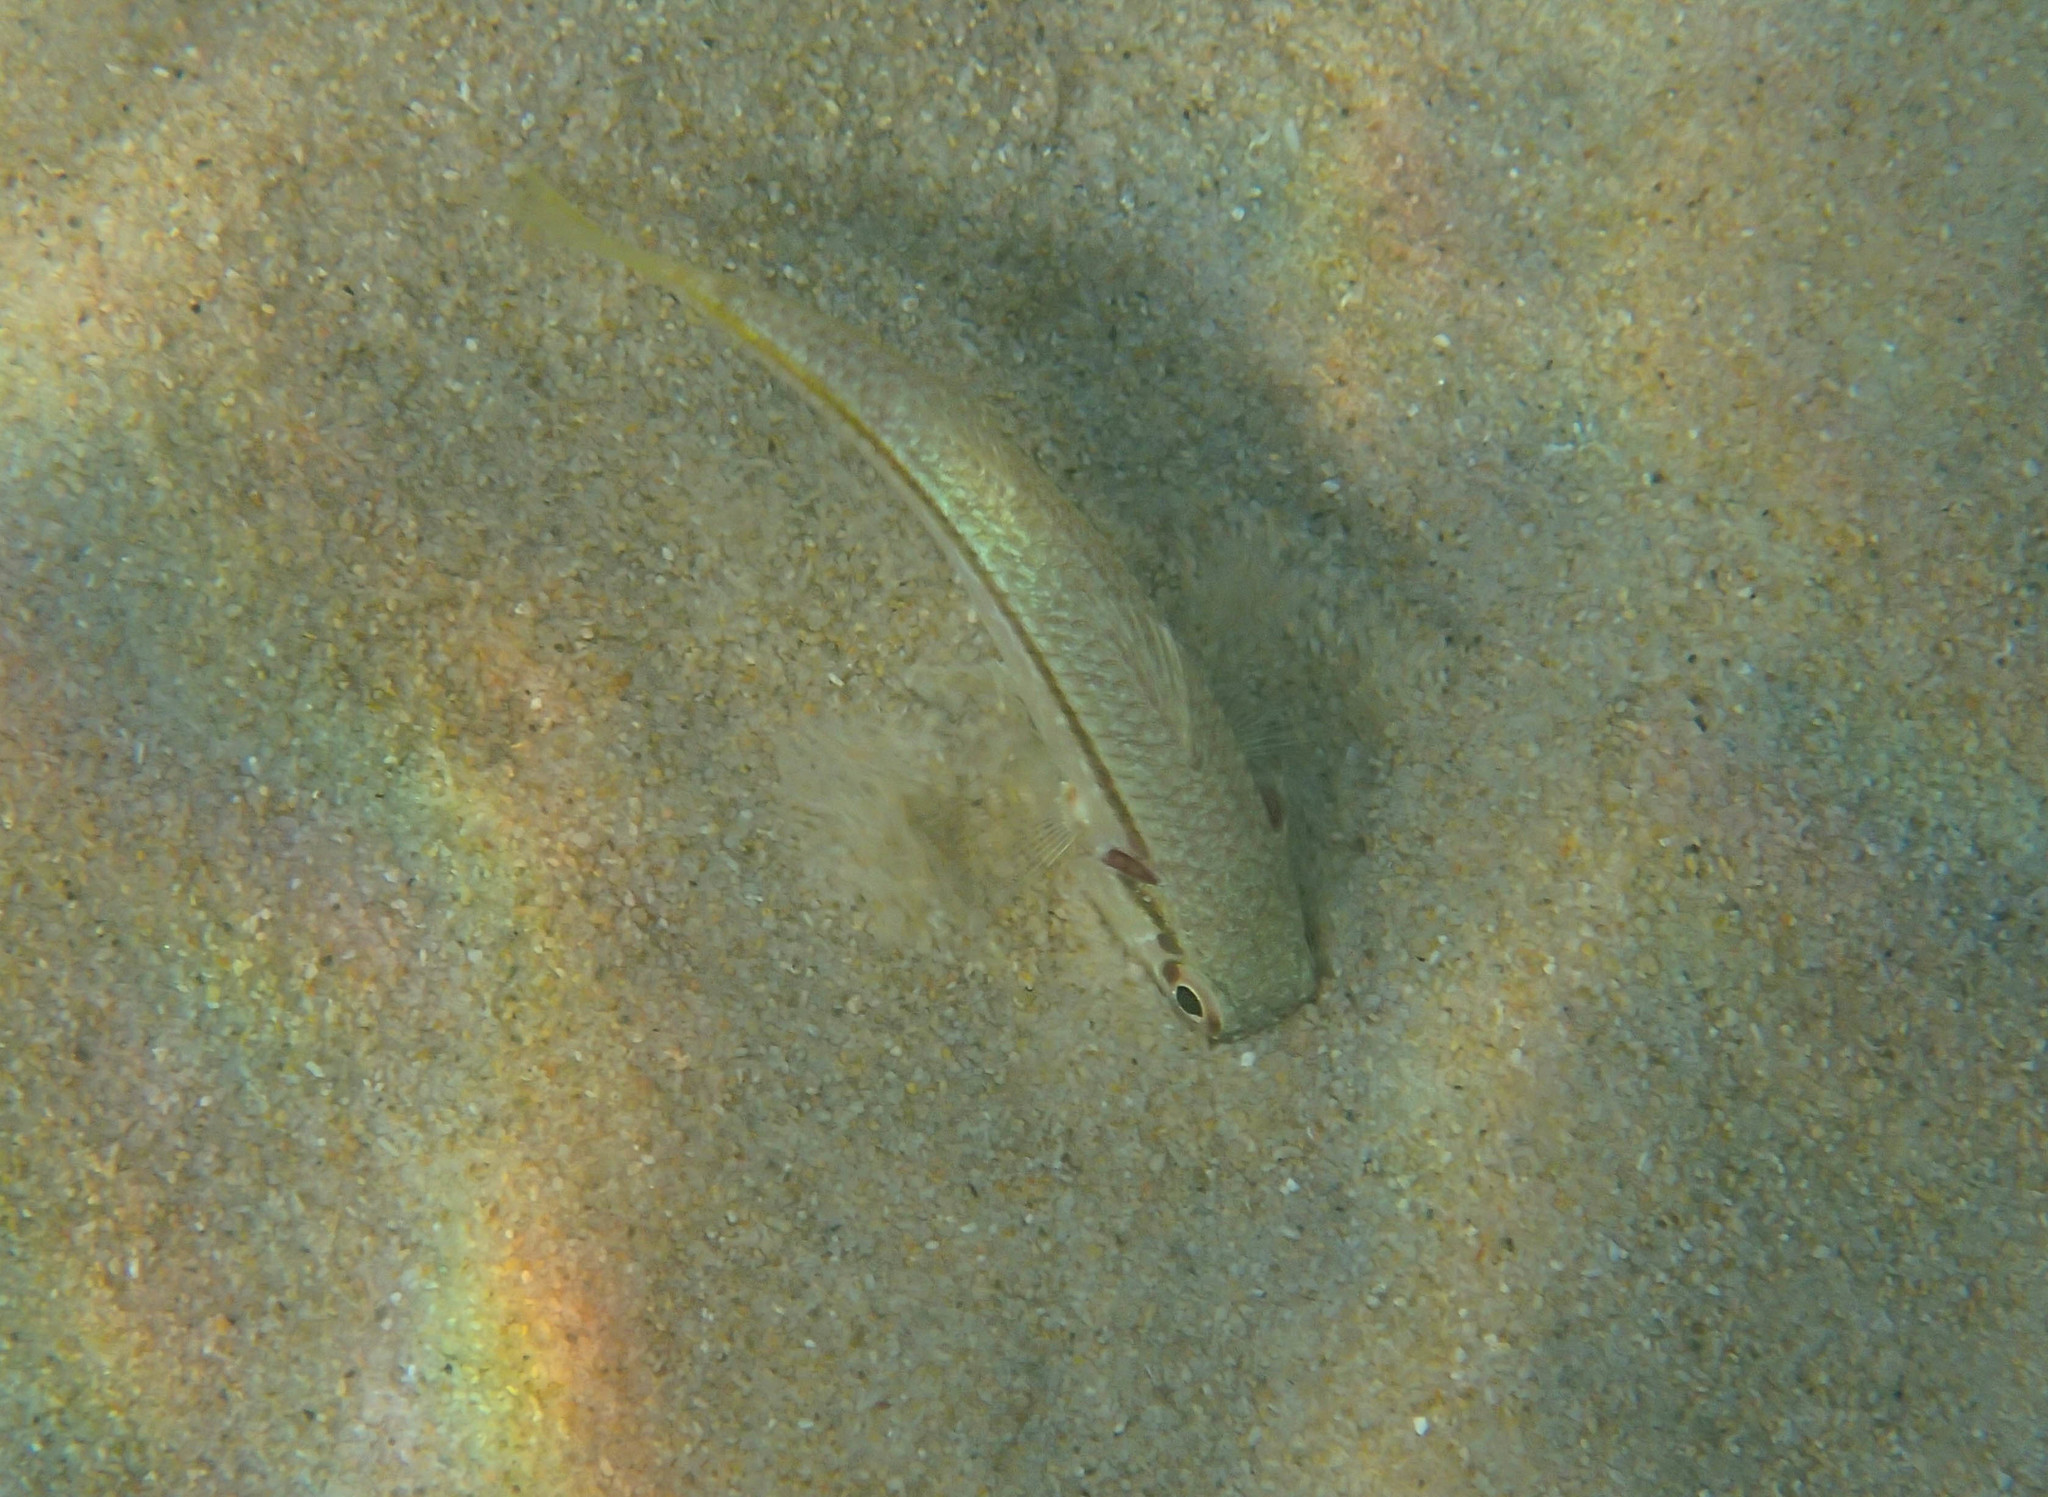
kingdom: Animalia
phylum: Chordata
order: Perciformes
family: Mullidae
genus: Mullus
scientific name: Mullus barbatus
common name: Blunt-snouted mullet
